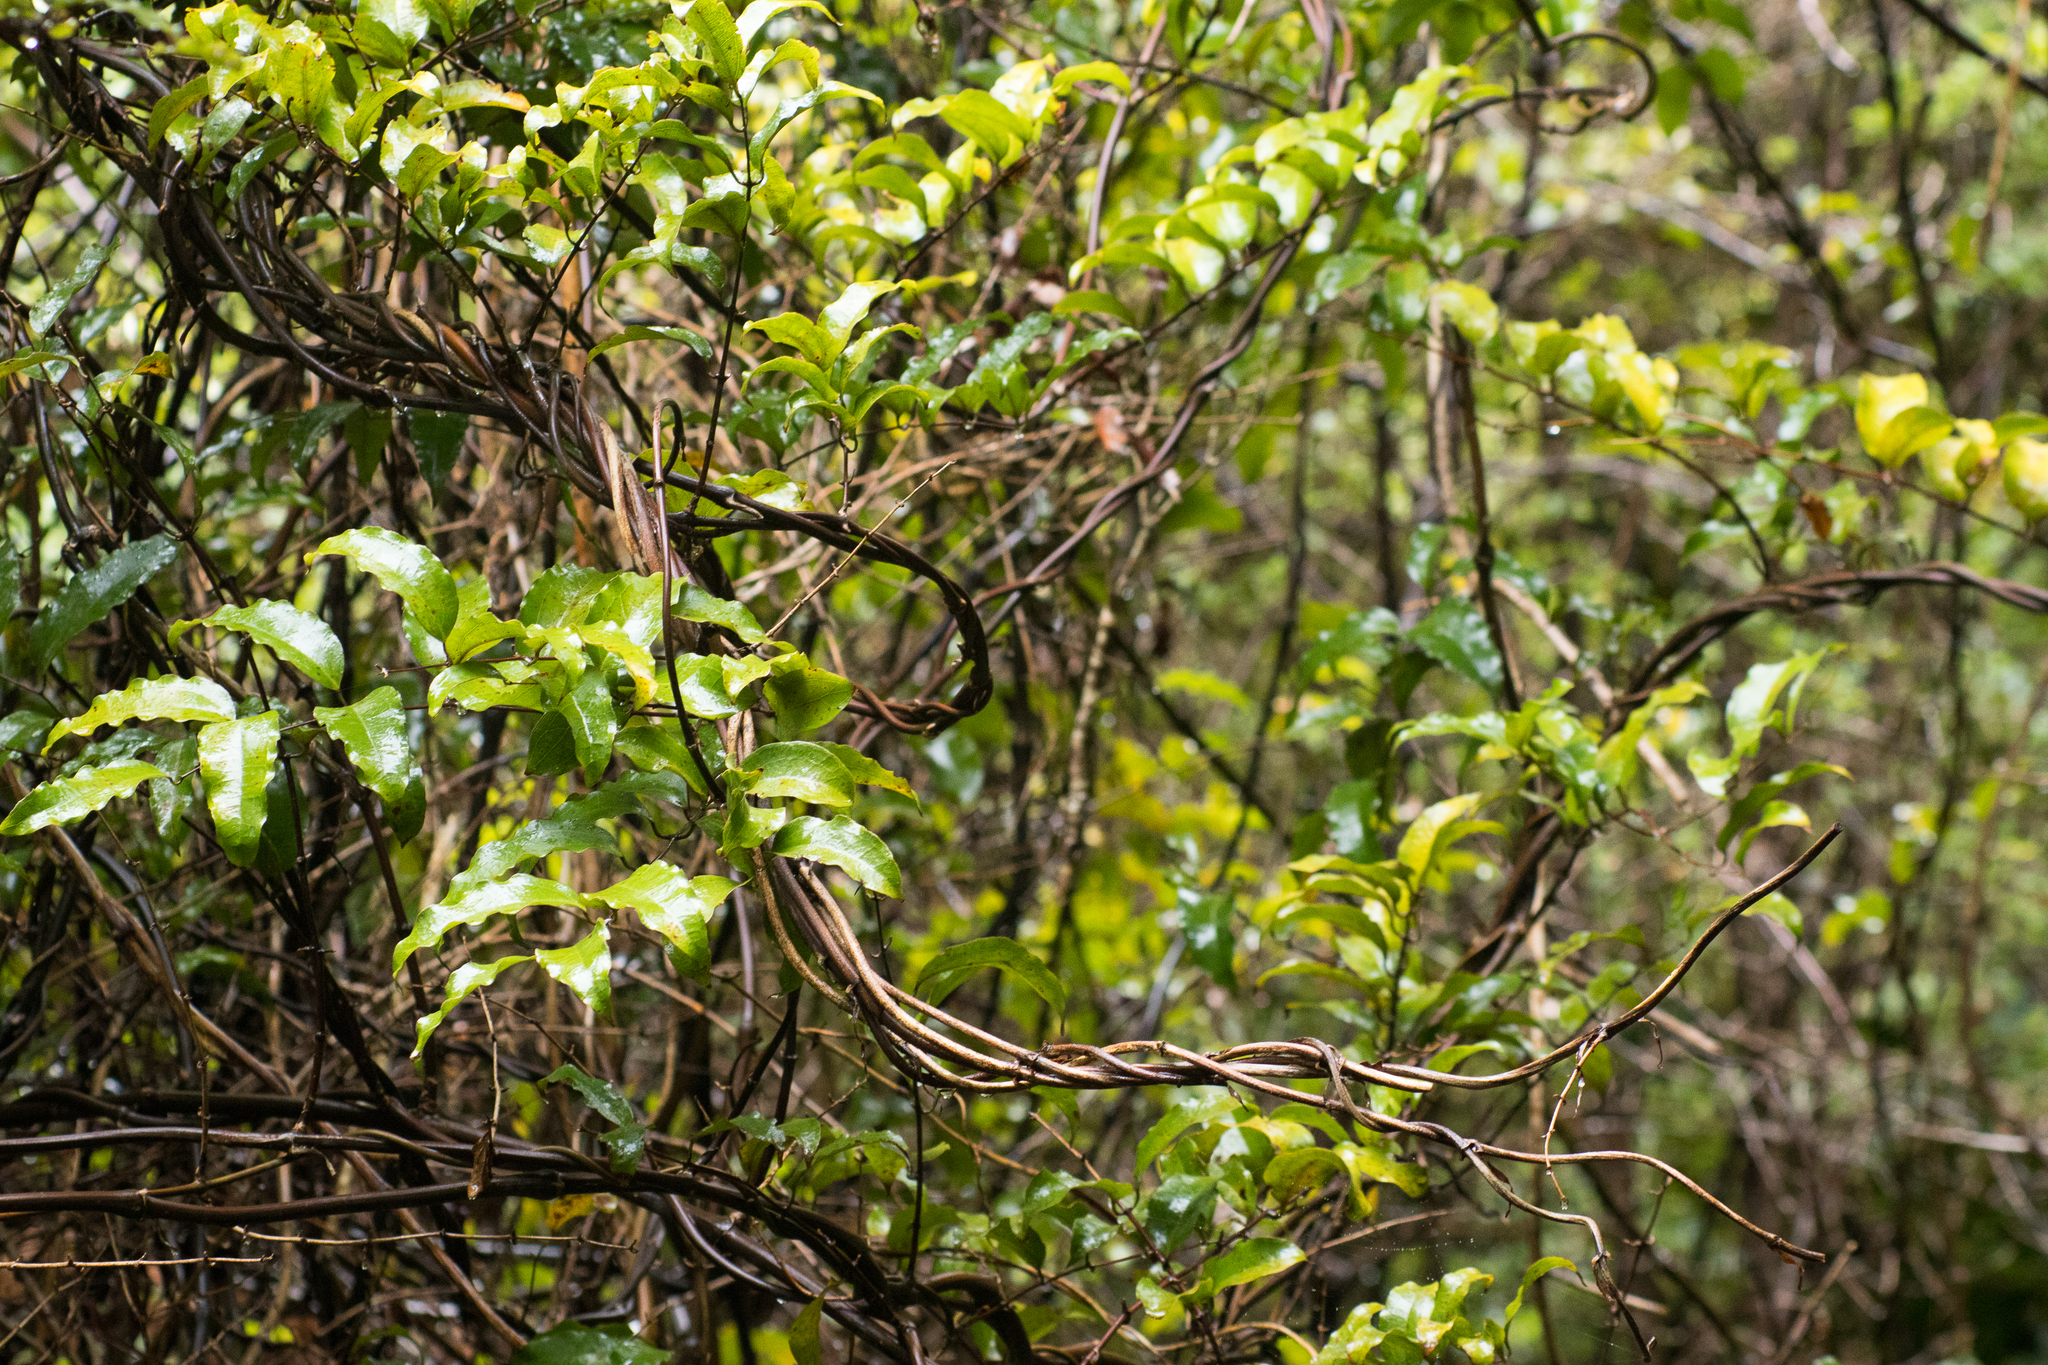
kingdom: Plantae
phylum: Tracheophyta
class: Liliopsida
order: Liliales
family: Ripogonaceae
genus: Ripogonum
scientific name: Ripogonum scandens
